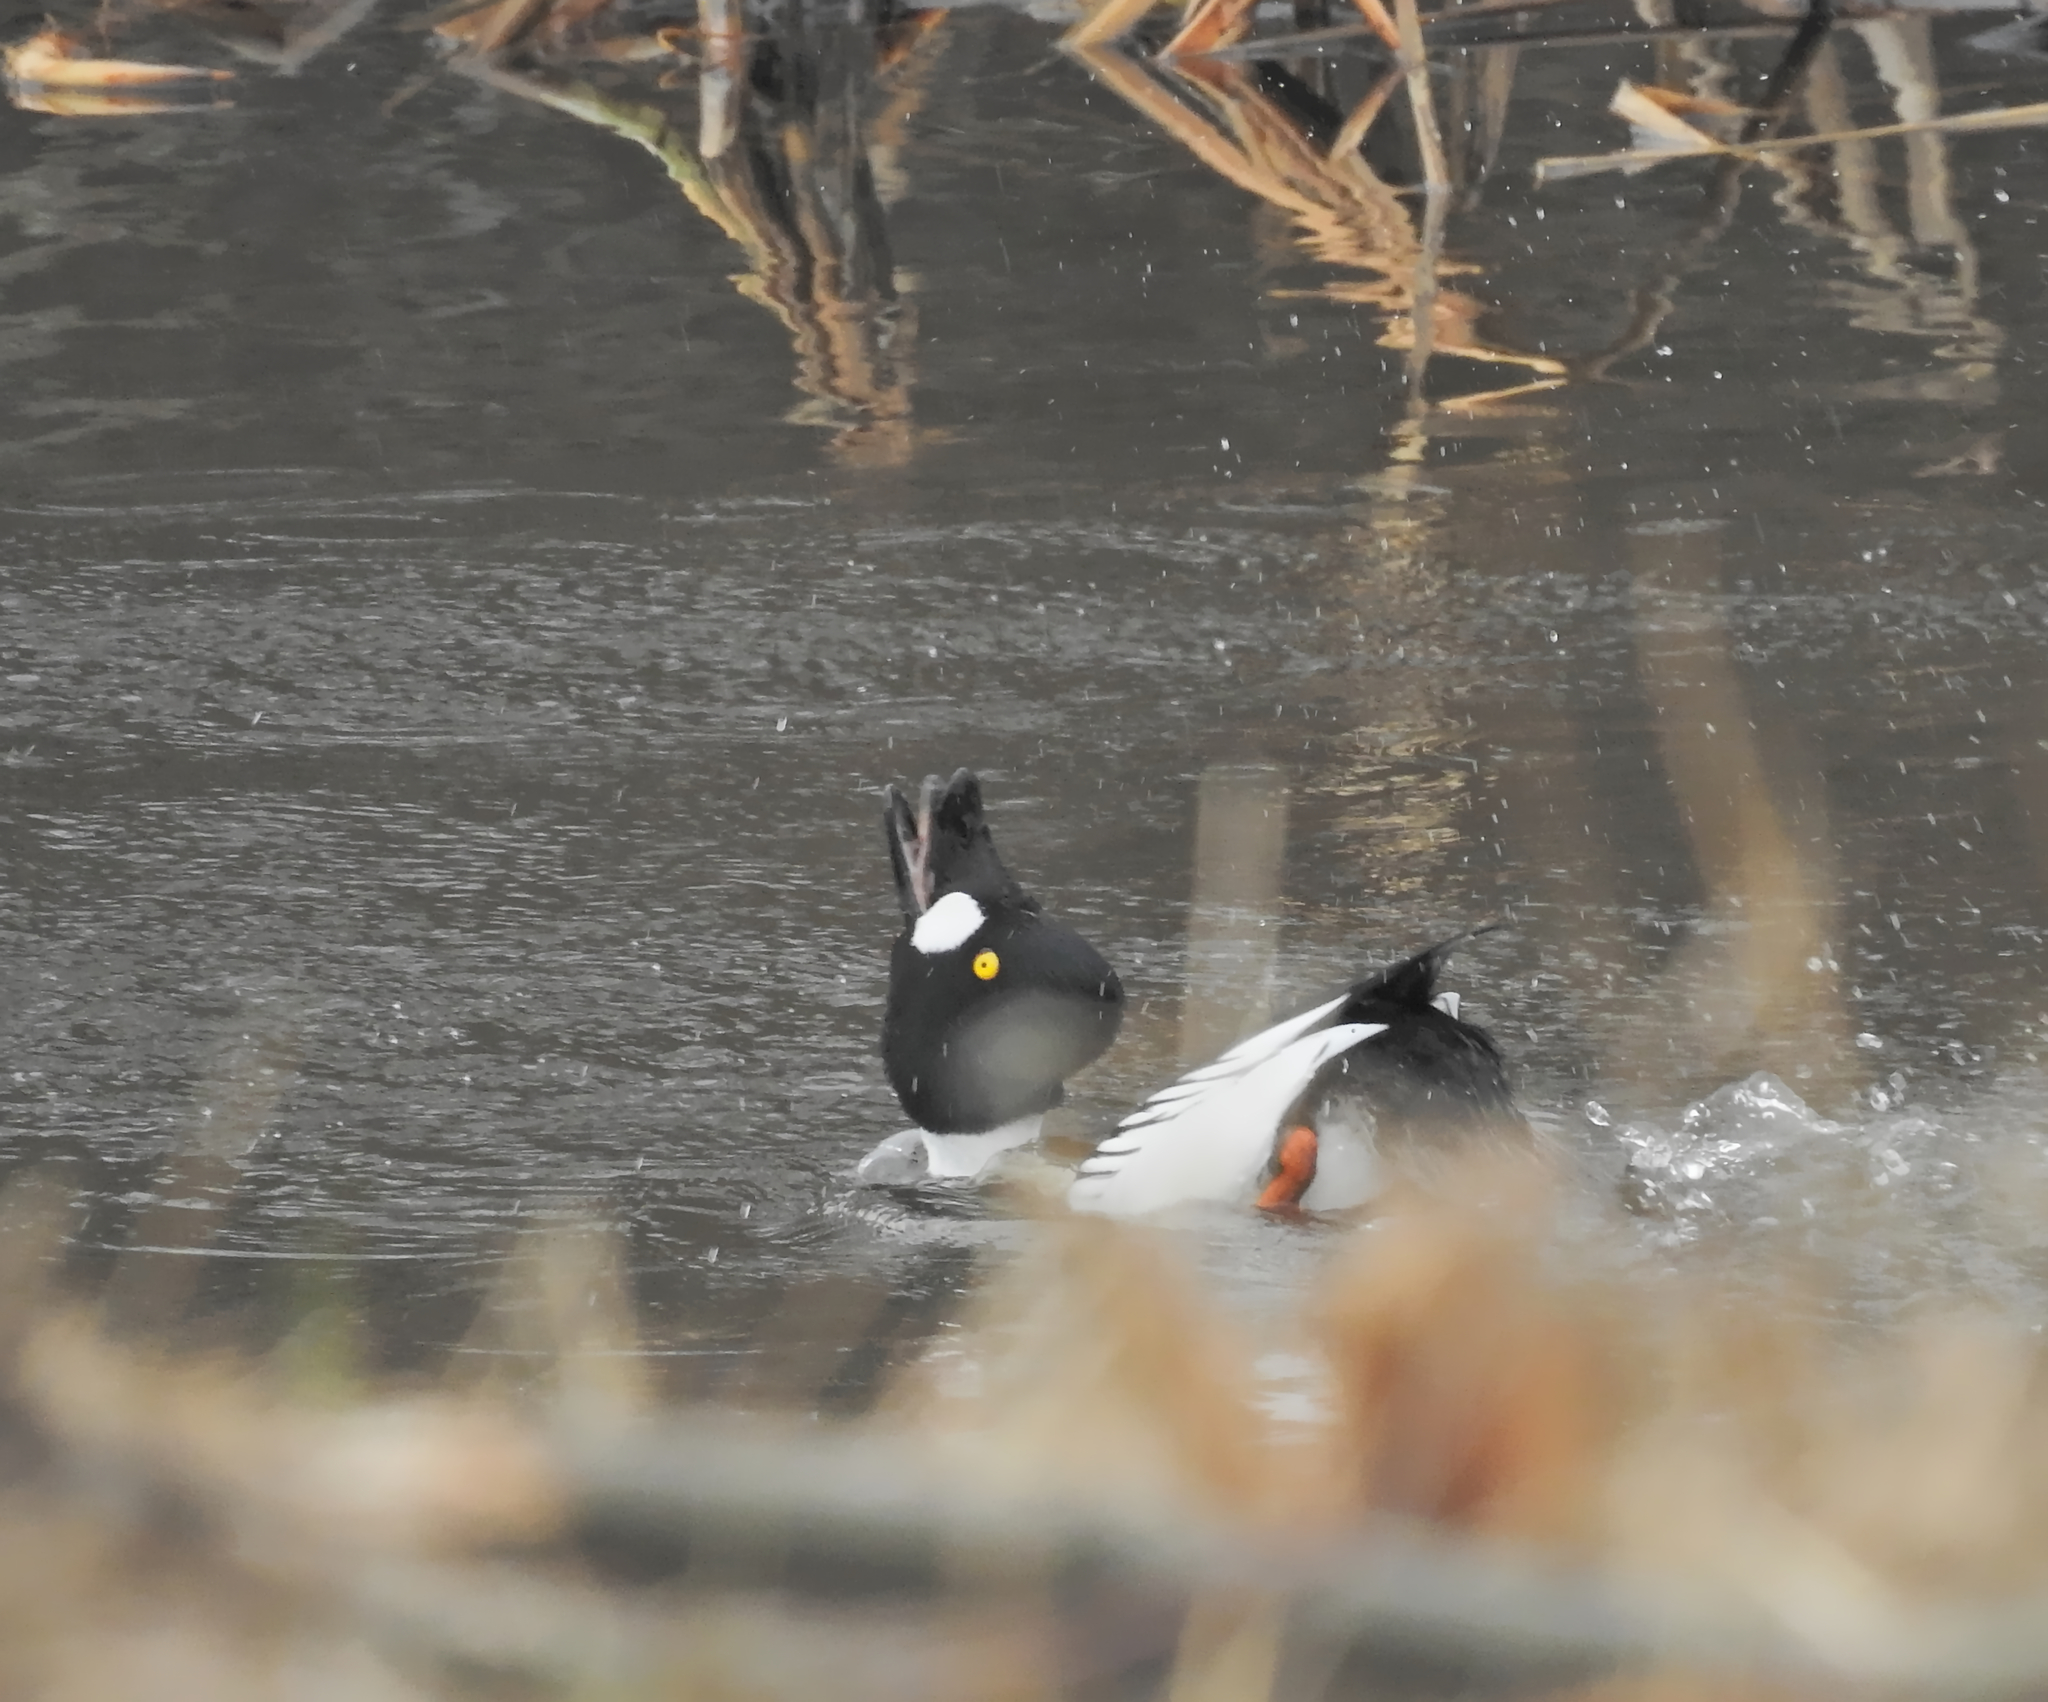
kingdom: Animalia
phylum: Chordata
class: Aves
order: Anseriformes
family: Anatidae
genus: Bucephala
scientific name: Bucephala clangula
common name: Common goldeneye
